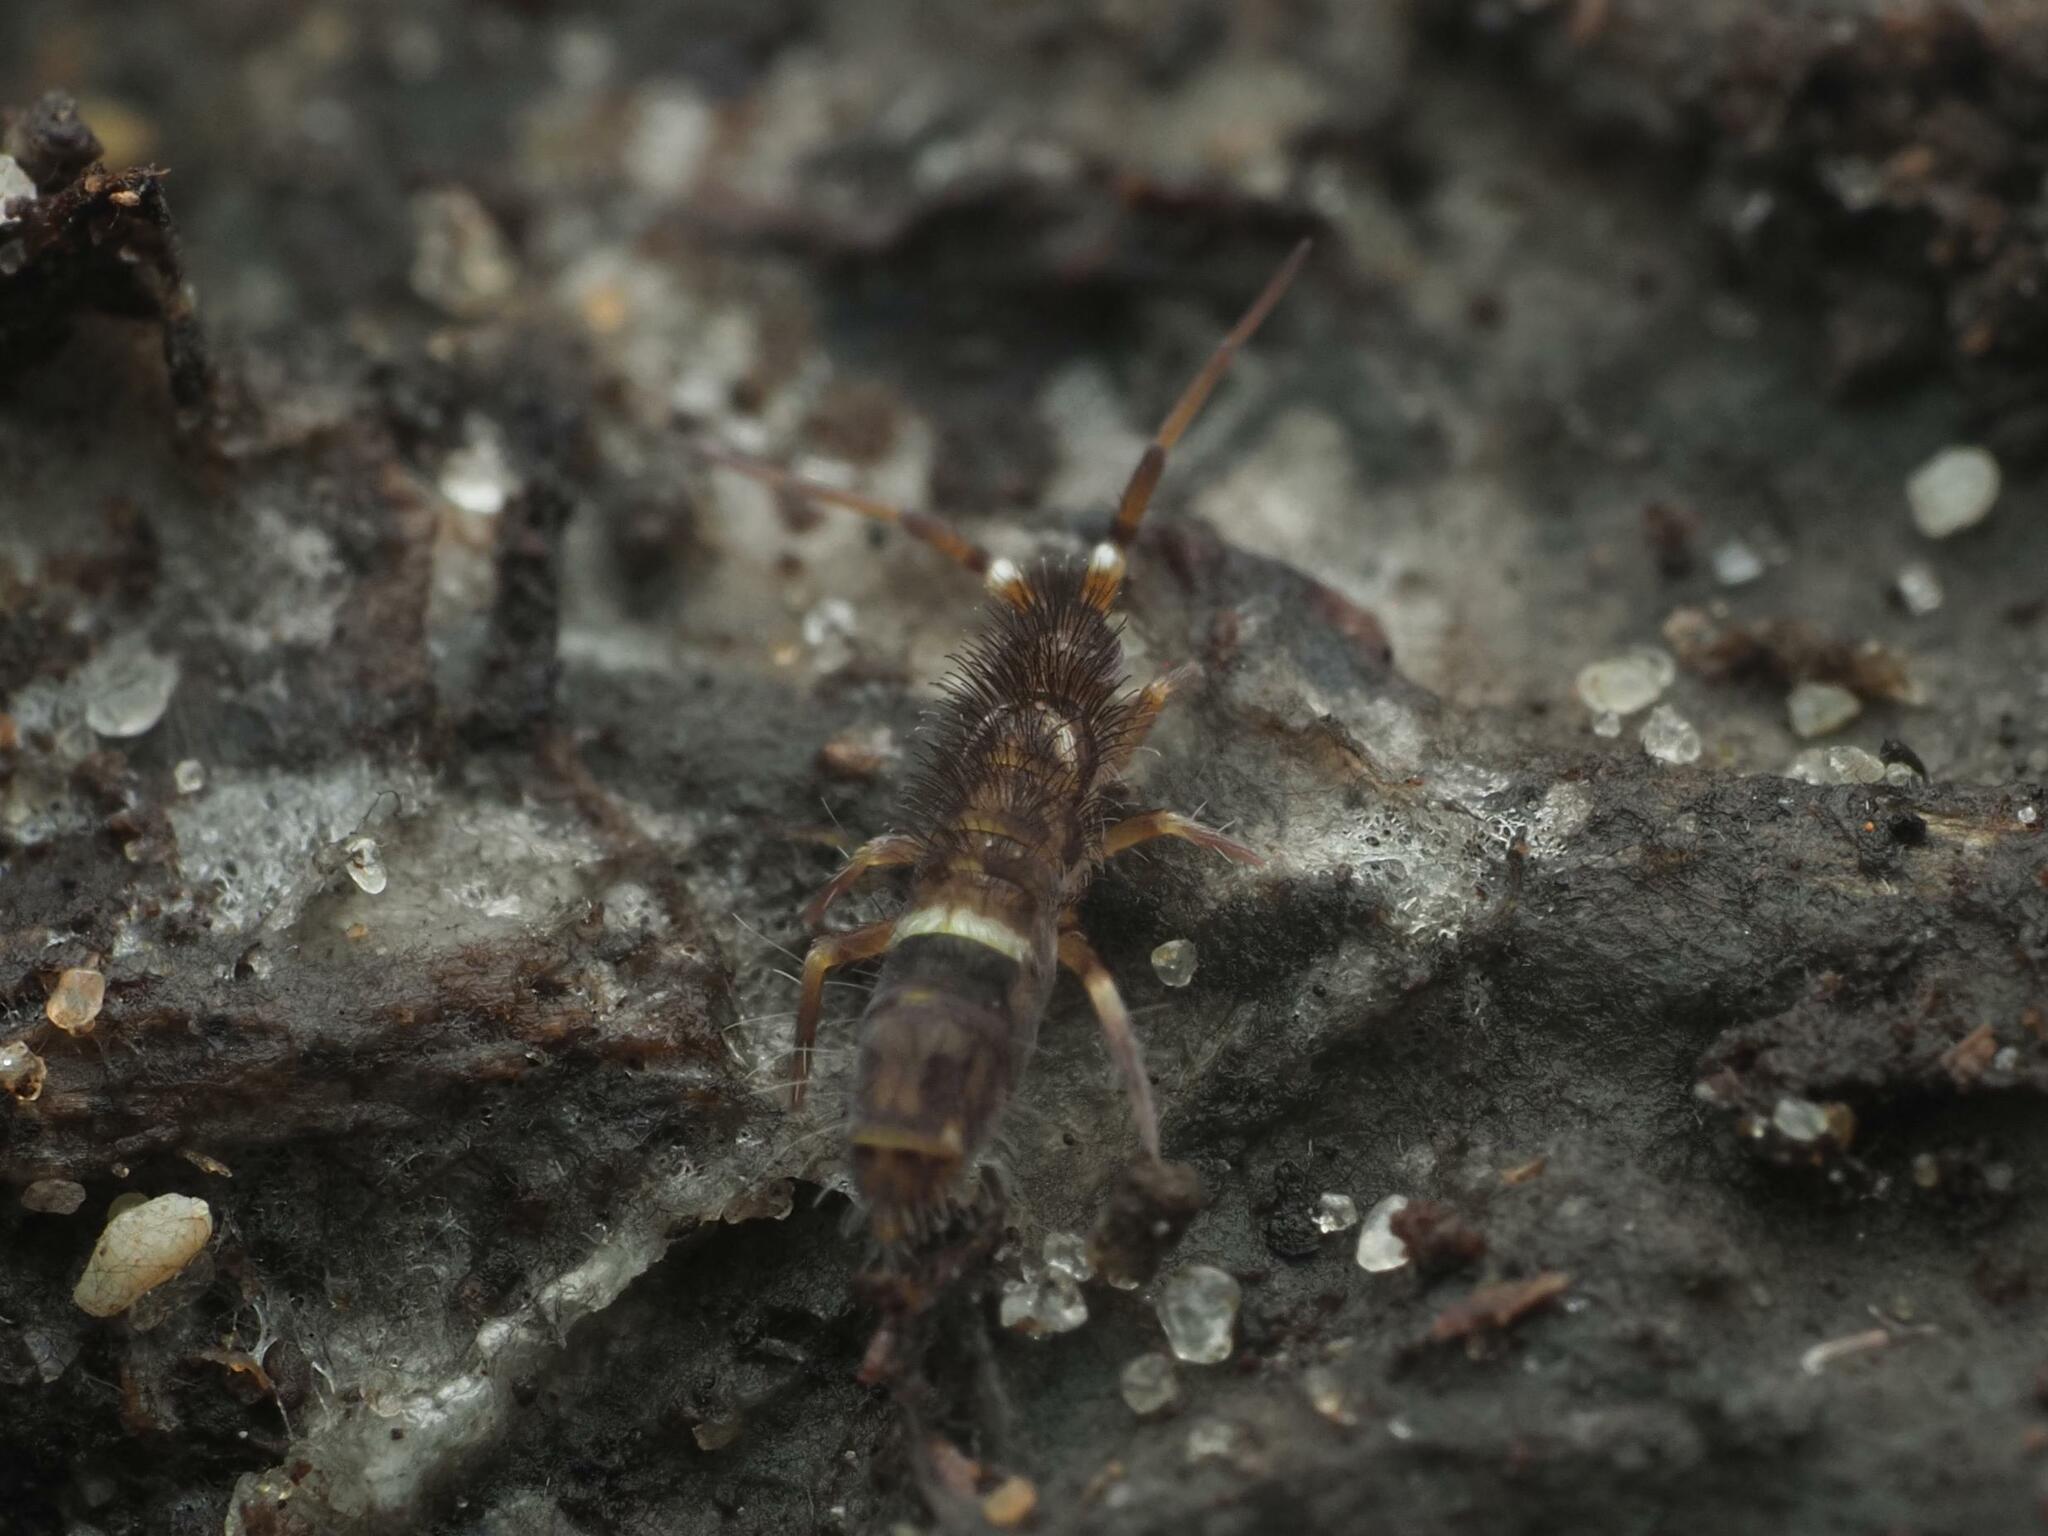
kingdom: Animalia
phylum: Arthropoda
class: Collembola
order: Entomobryomorpha
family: Orchesellidae
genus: Orchesella
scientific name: Orchesella cincta
